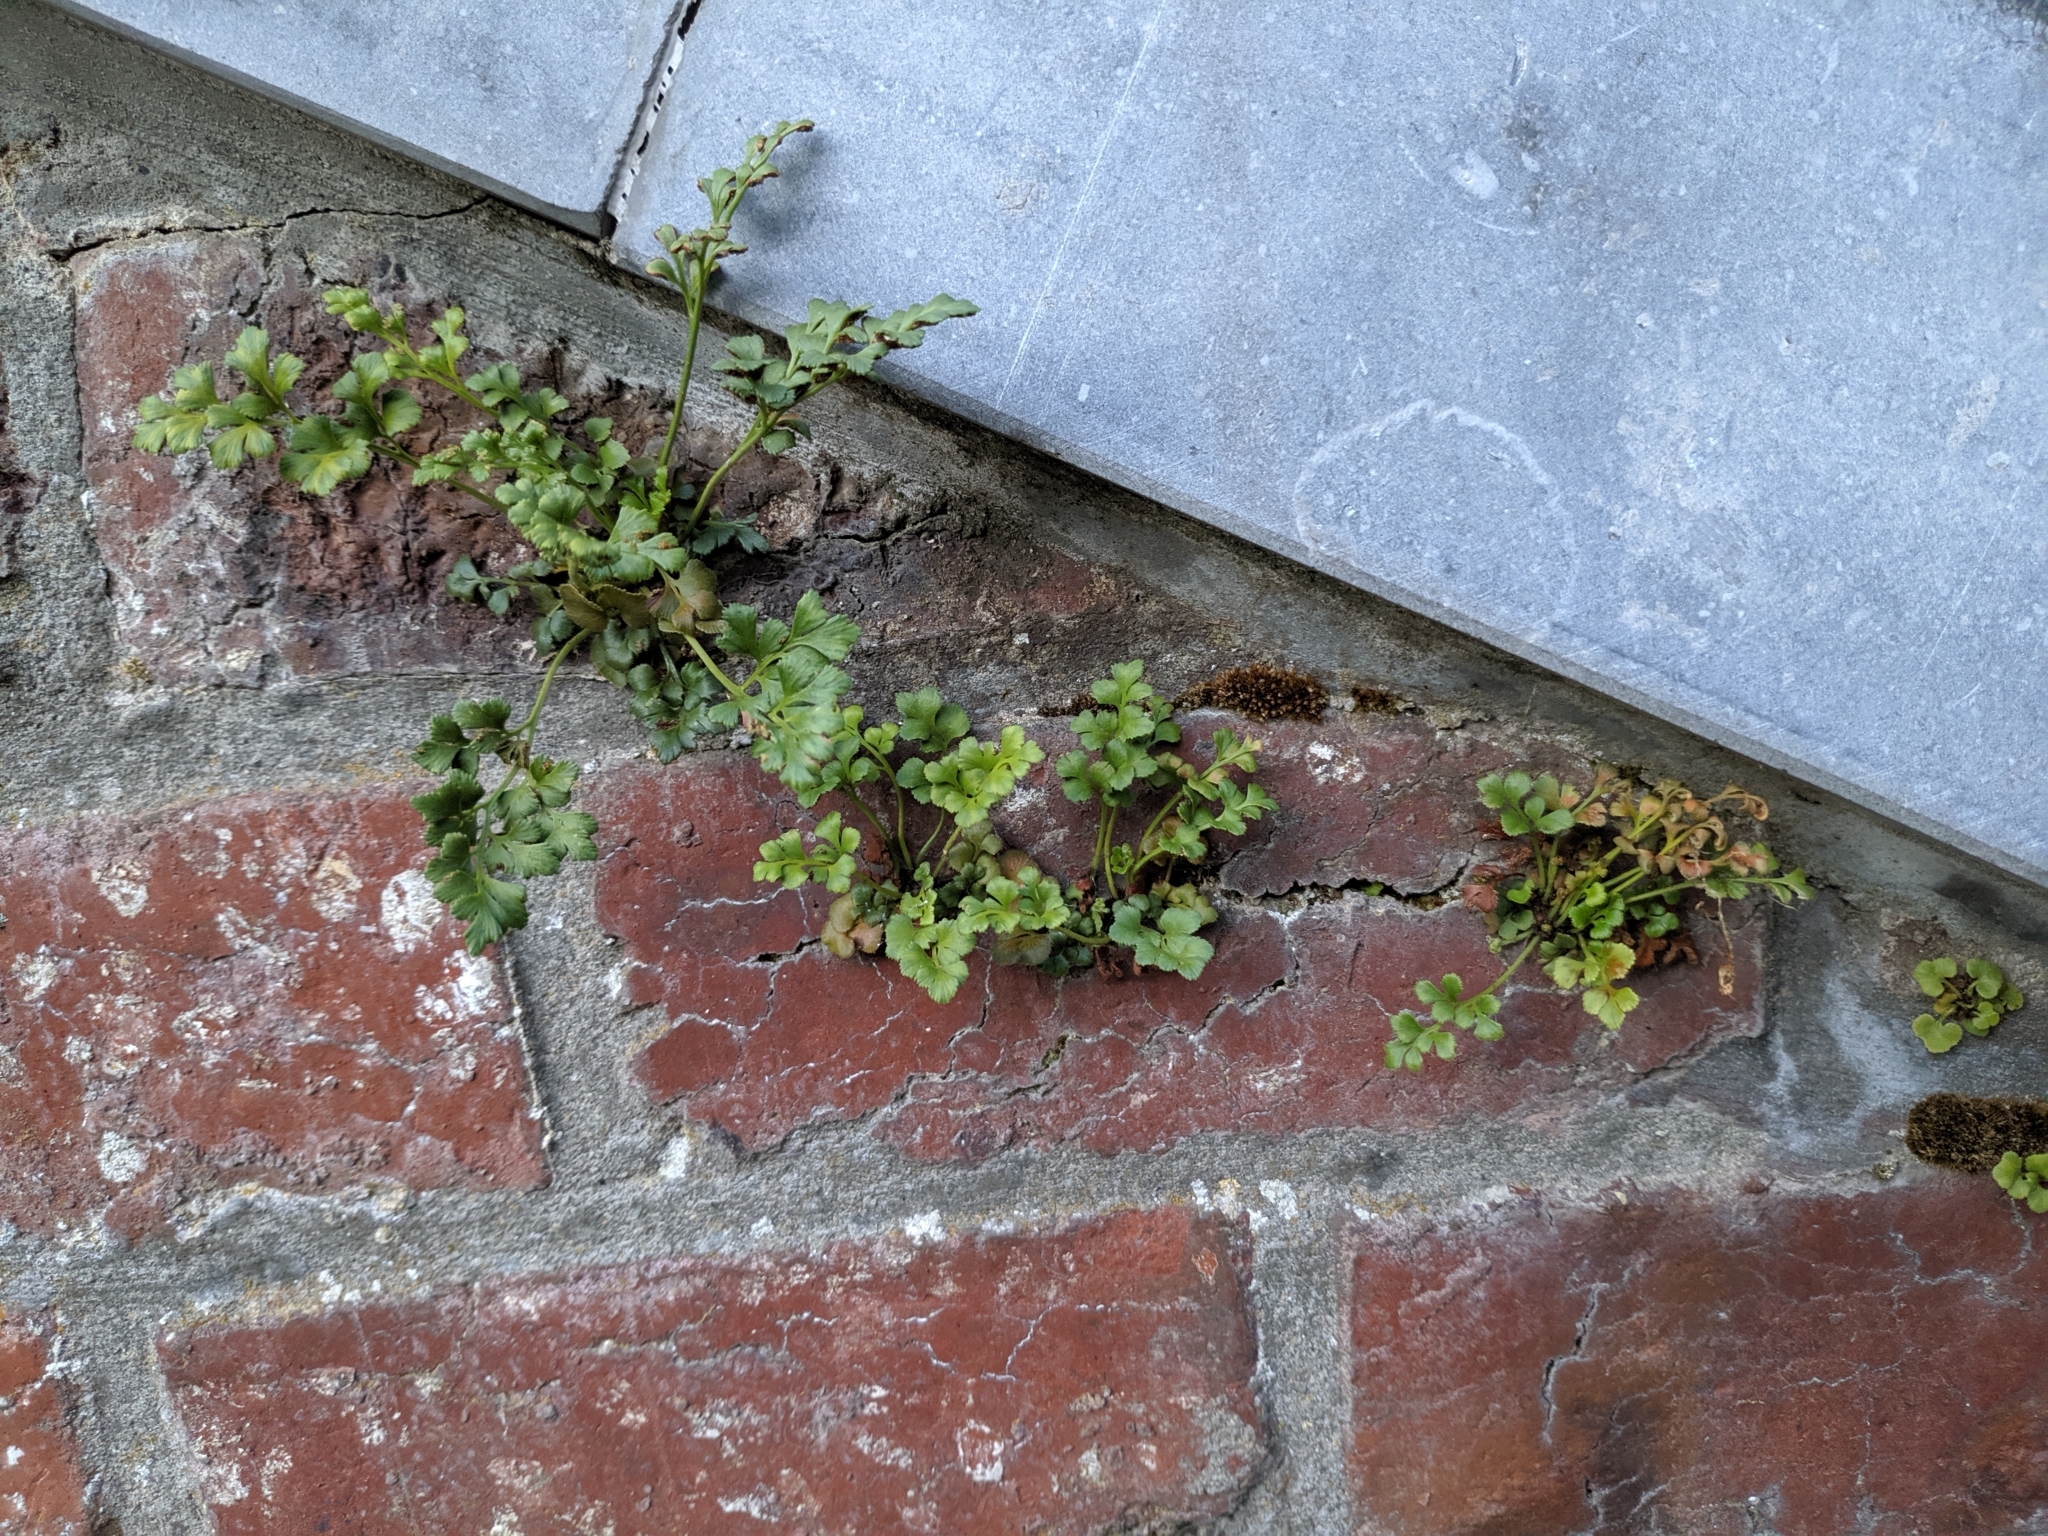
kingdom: Plantae
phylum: Tracheophyta
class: Polypodiopsida
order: Polypodiales
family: Aspleniaceae
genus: Asplenium
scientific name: Asplenium ruta-muraria
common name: Wall-rue
